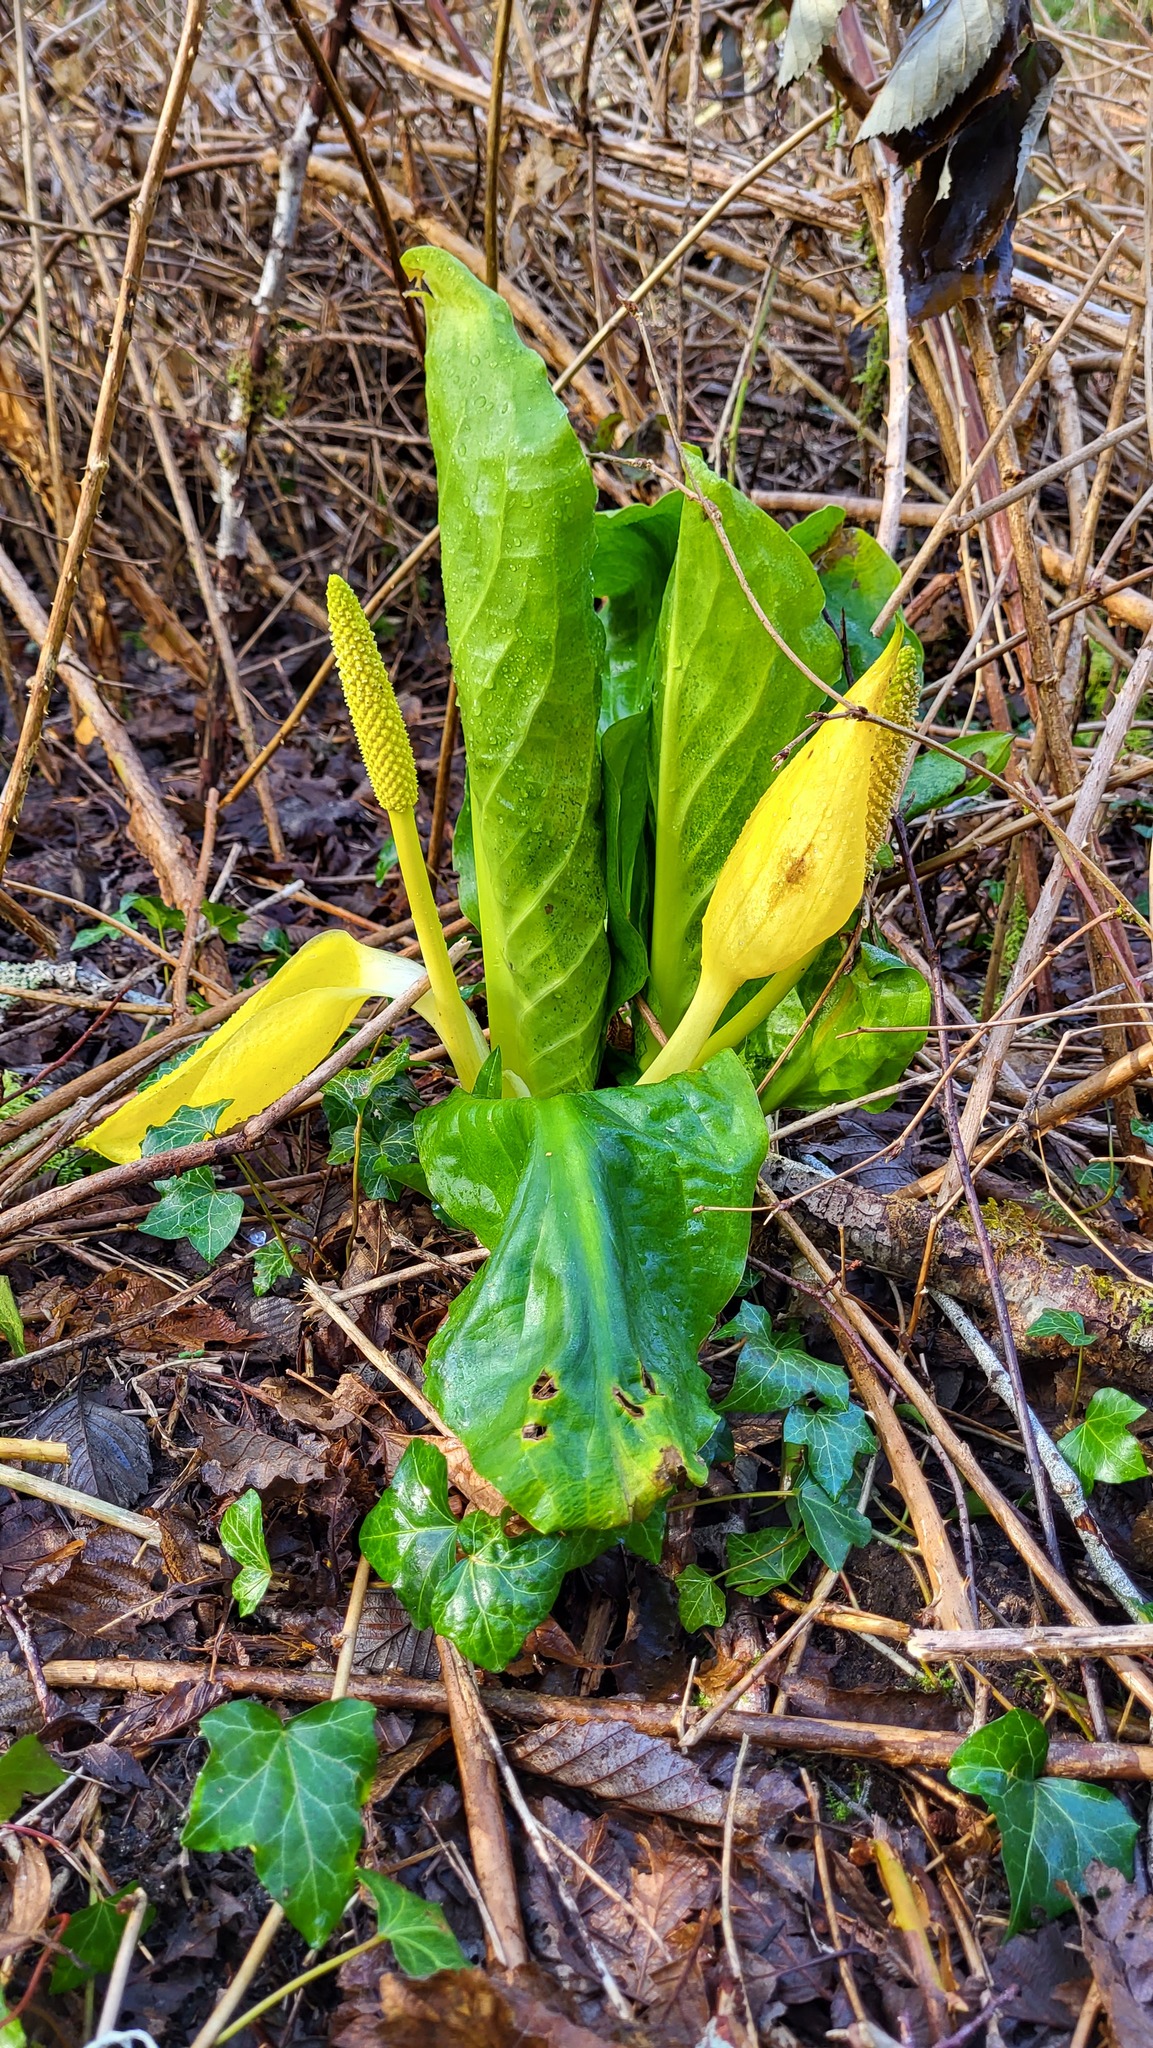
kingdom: Plantae
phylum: Tracheophyta
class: Liliopsida
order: Alismatales
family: Araceae
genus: Lysichiton
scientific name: Lysichiton americanus
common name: American skunk cabbage
